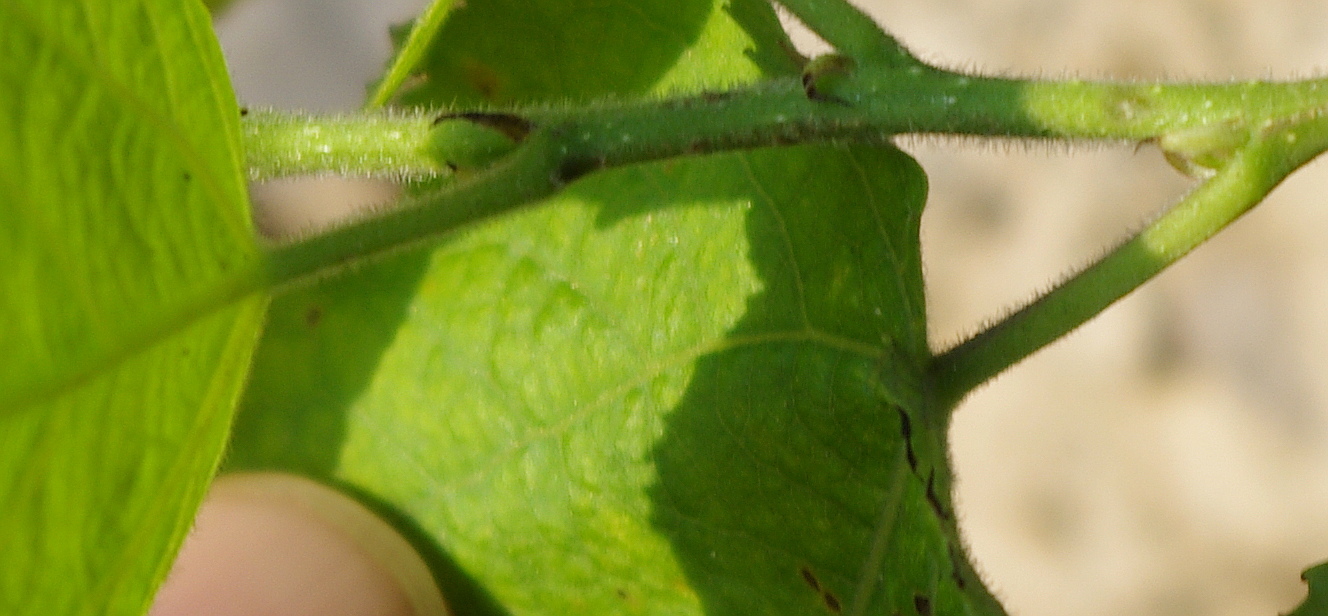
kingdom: Plantae
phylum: Tracheophyta
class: Magnoliopsida
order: Malpighiales
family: Salicaceae
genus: Populus
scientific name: Populus tremula
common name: European aspen
